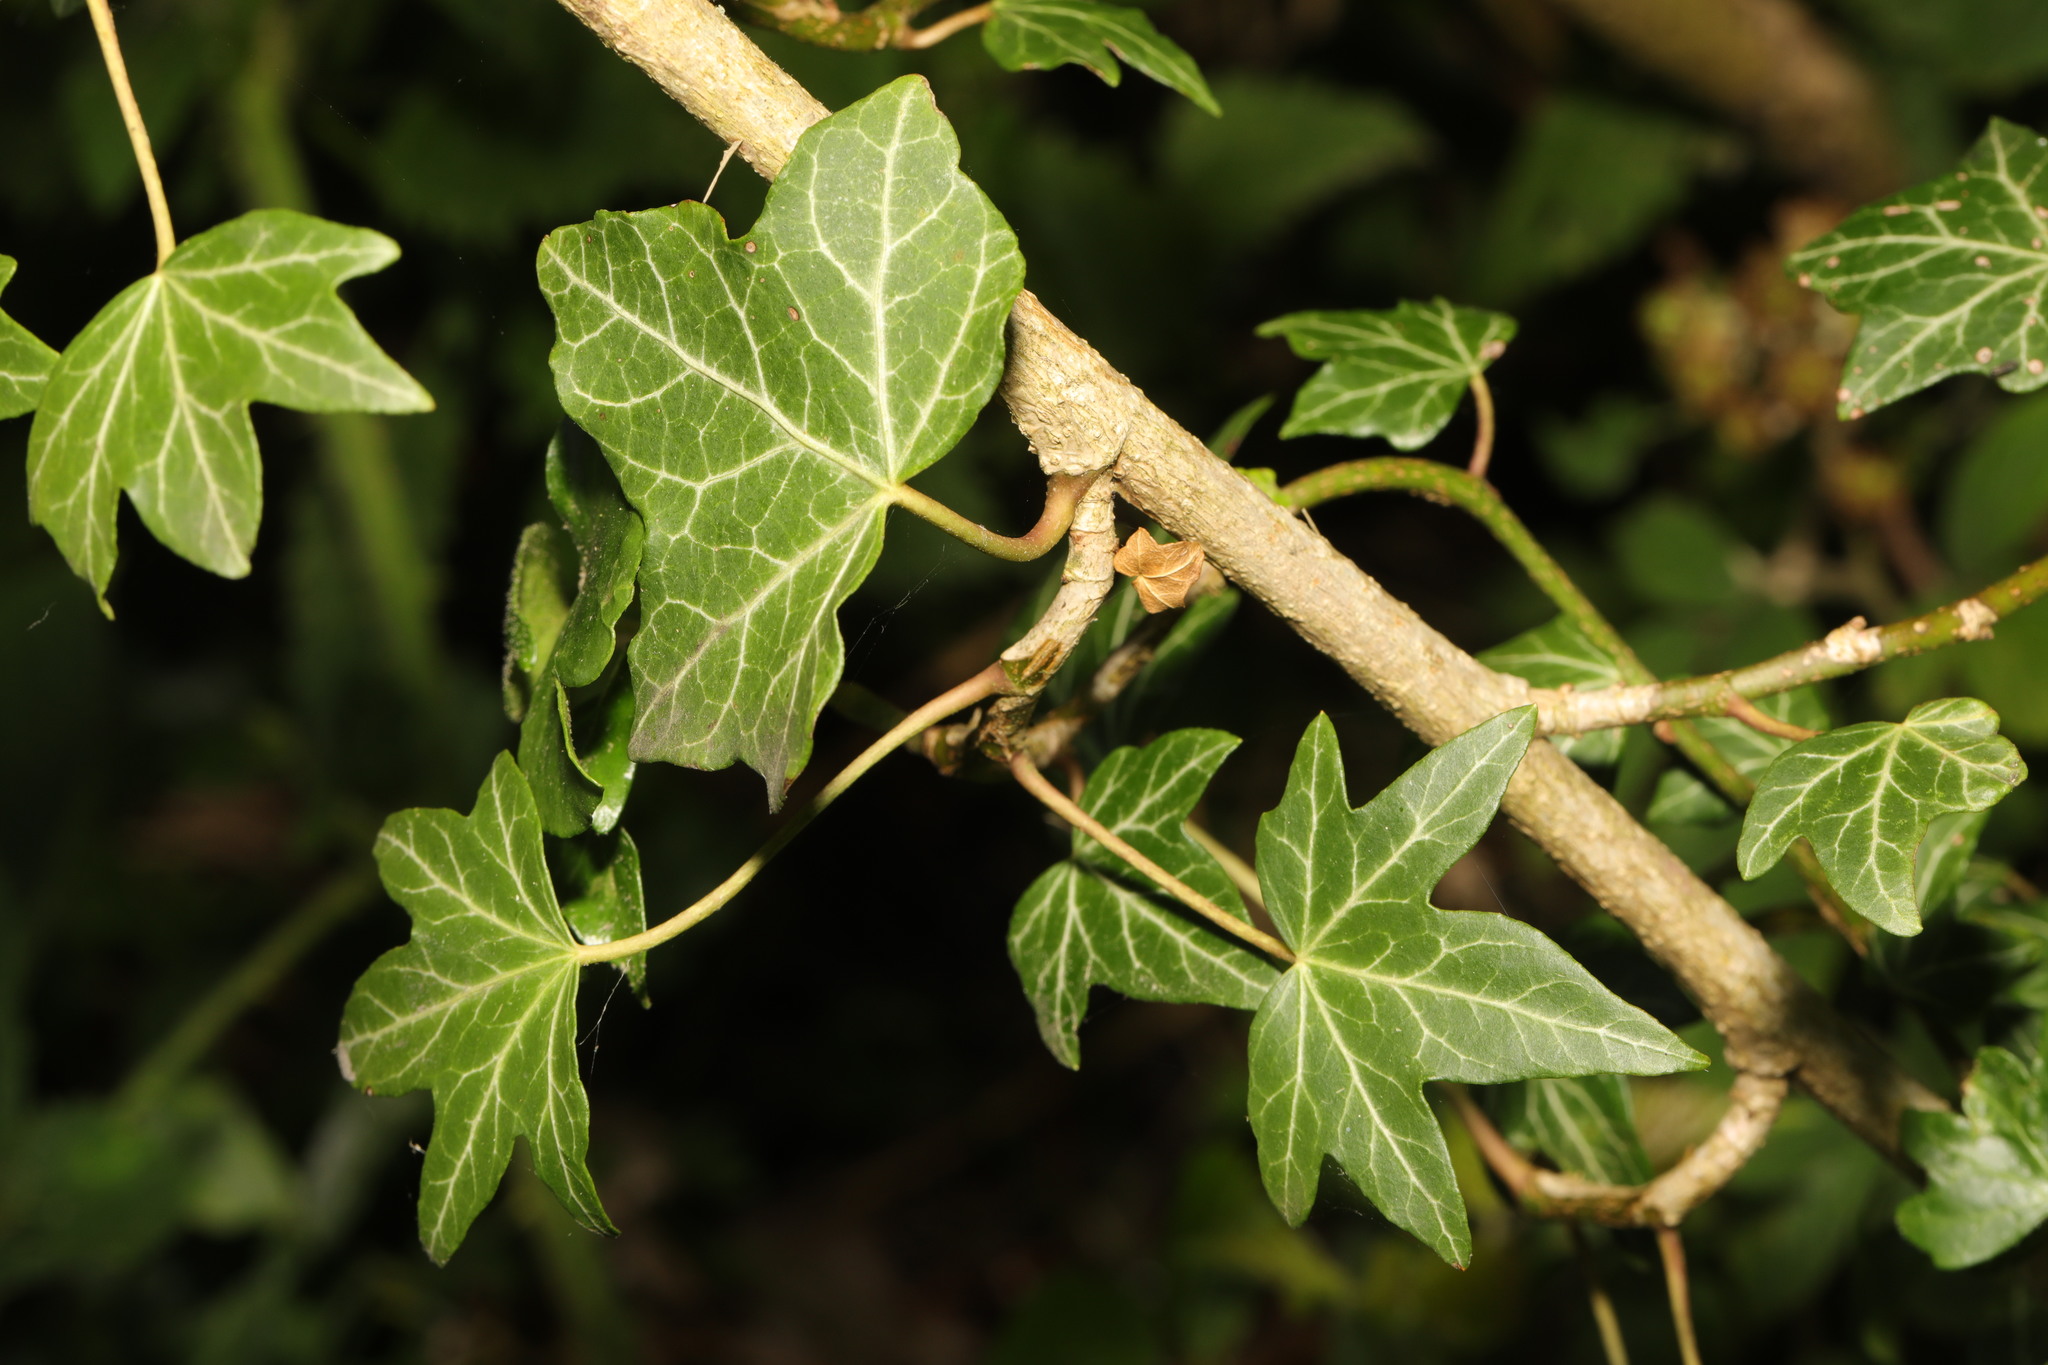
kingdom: Plantae
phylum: Tracheophyta
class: Magnoliopsida
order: Apiales
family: Araliaceae
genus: Hedera
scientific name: Hedera helix
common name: Ivy
